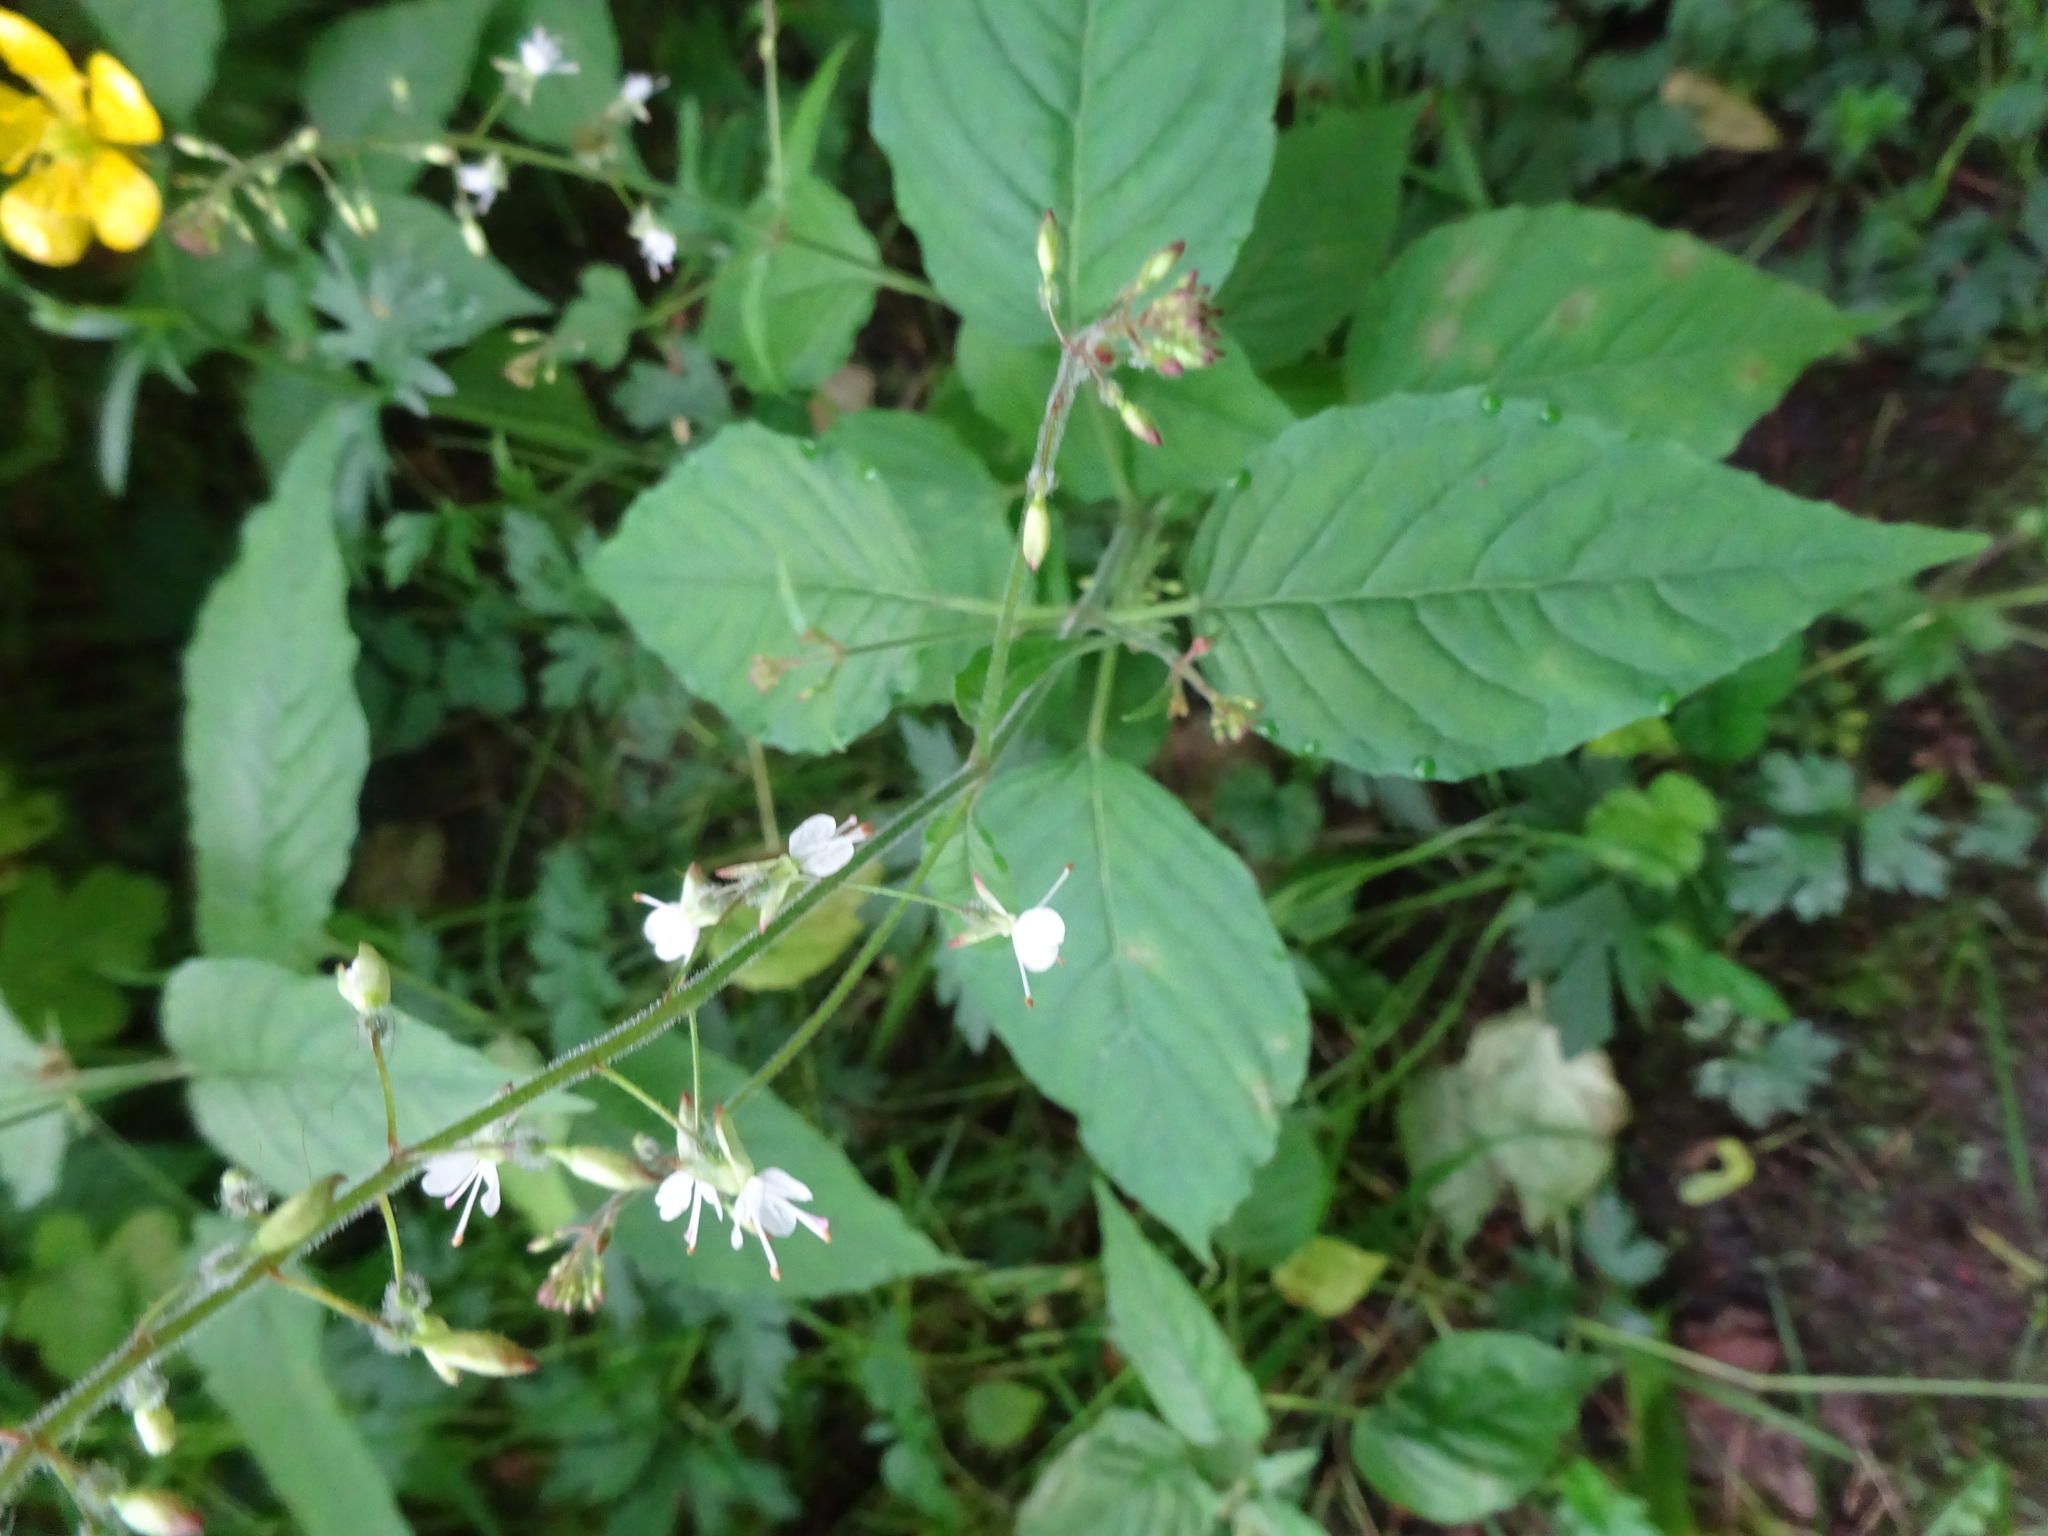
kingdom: Plantae
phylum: Tracheophyta
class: Magnoliopsida
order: Myrtales
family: Onagraceae
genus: Circaea
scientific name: Circaea lutetiana
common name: Enchanter's-nightshade
